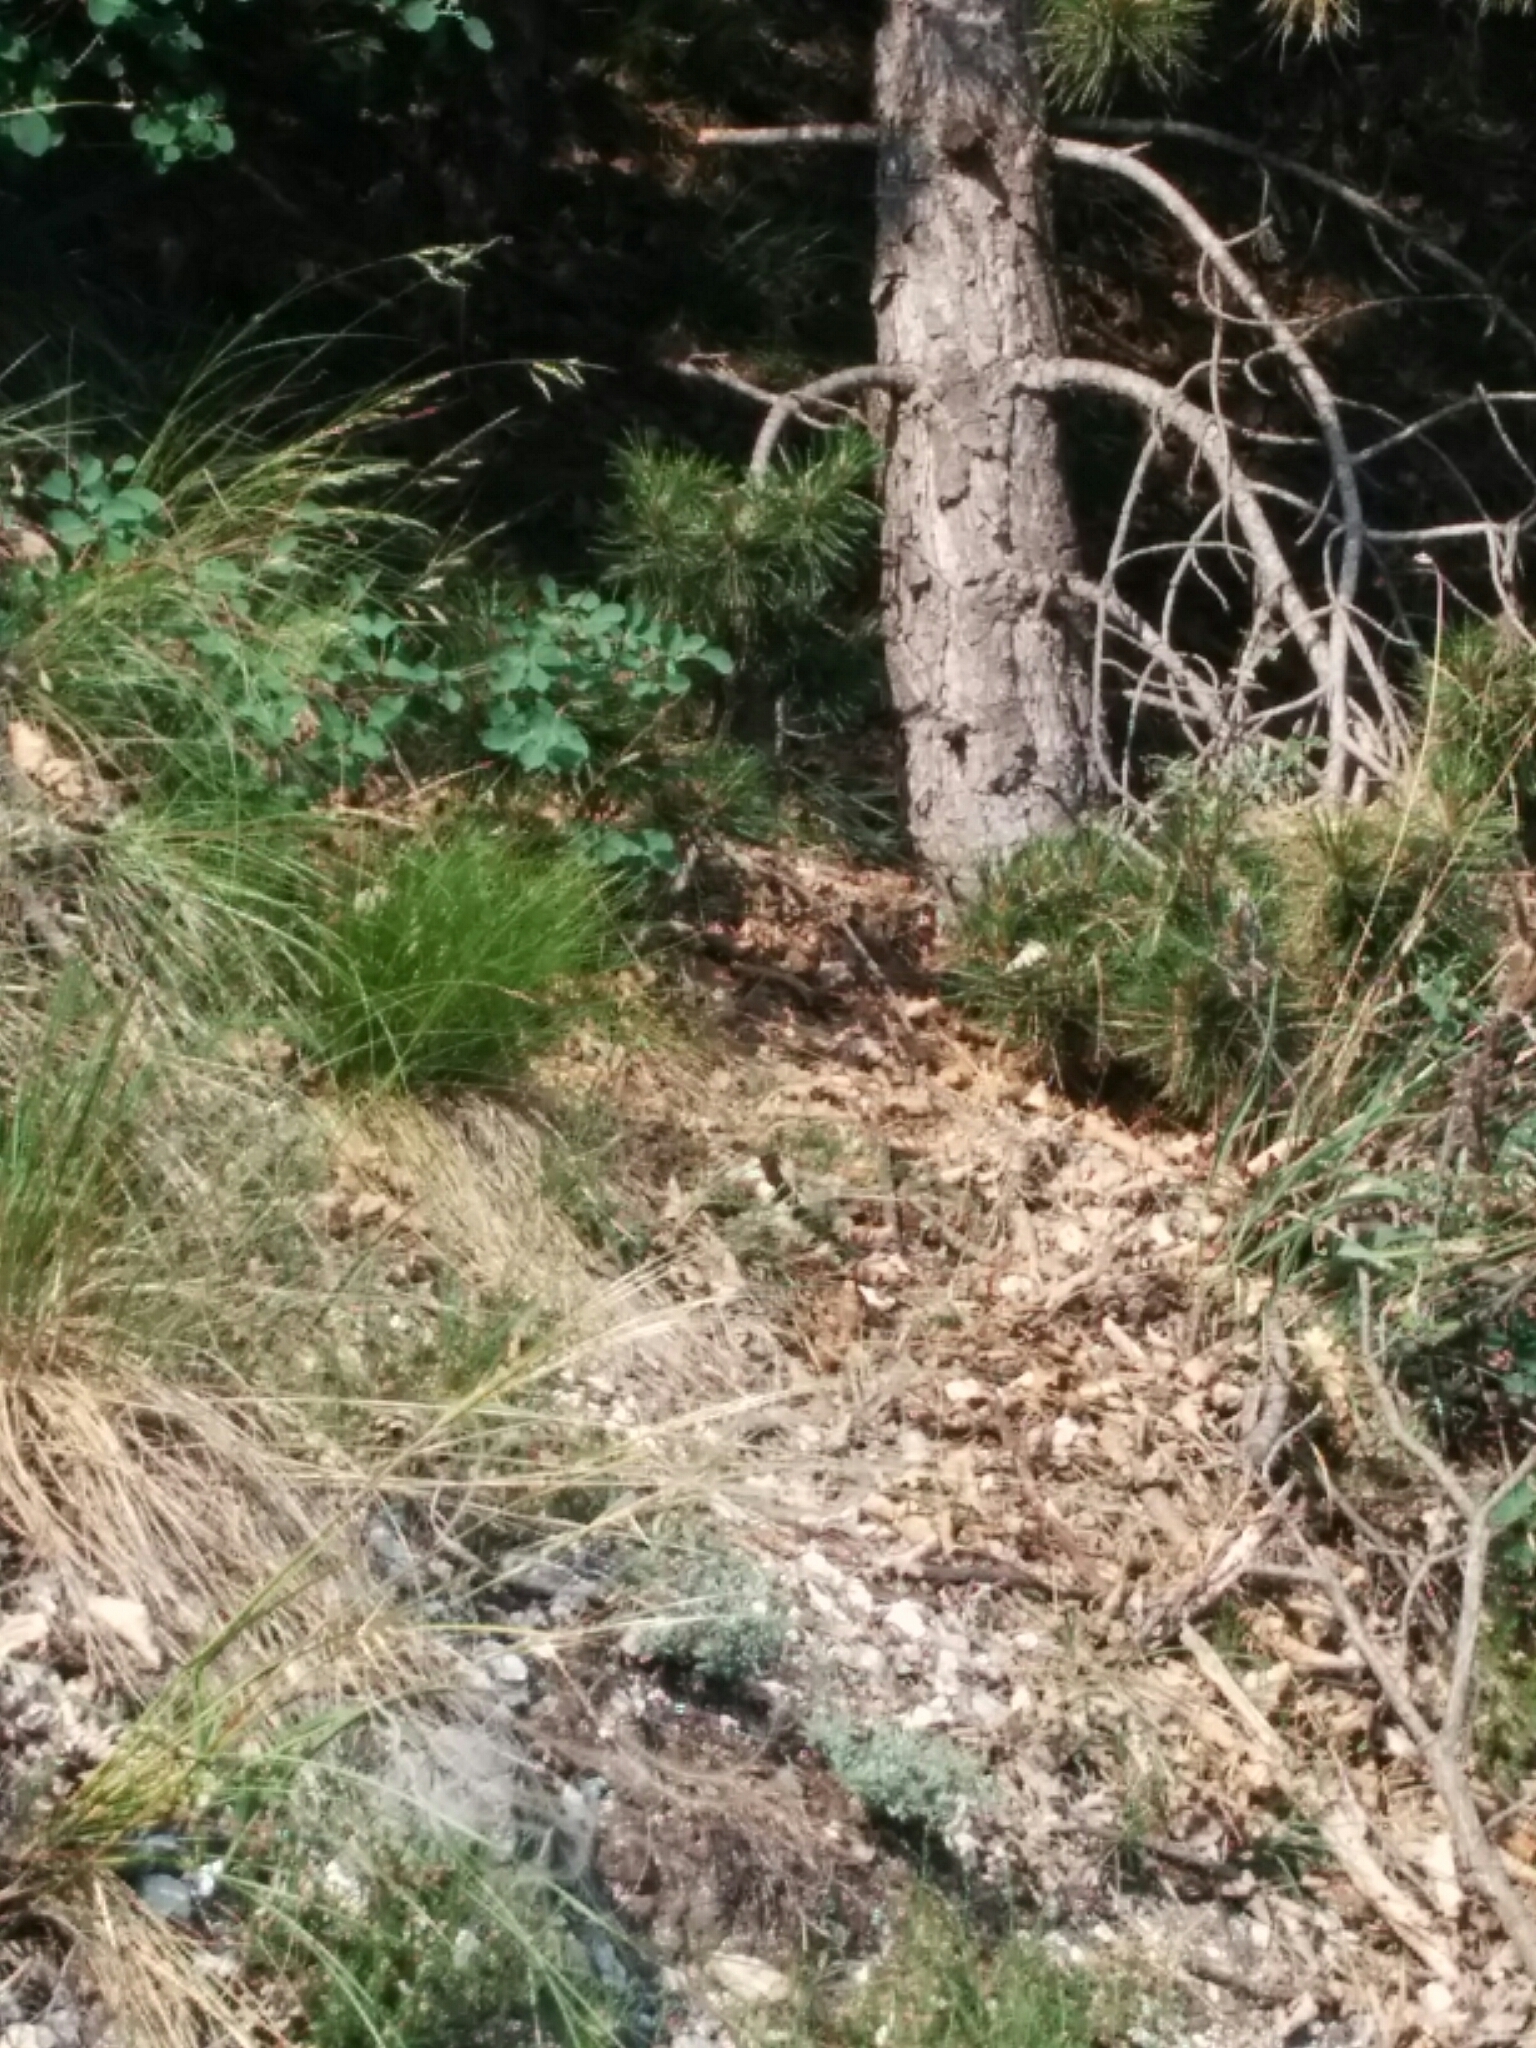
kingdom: Animalia
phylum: Chordata
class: Squamata
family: Colubridae
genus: Hierophis
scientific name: Hierophis viridiflavus
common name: Green whip snake
